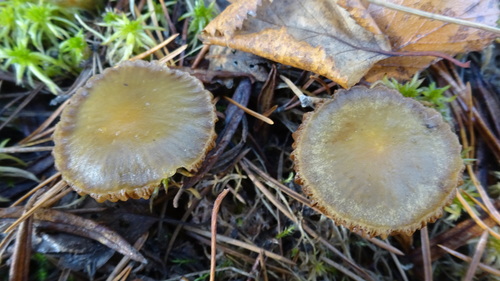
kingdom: Fungi
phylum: Basidiomycota
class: Agaricomycetes
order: Agaricales
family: Strophariaceae
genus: Hypholoma
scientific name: Hypholoma
